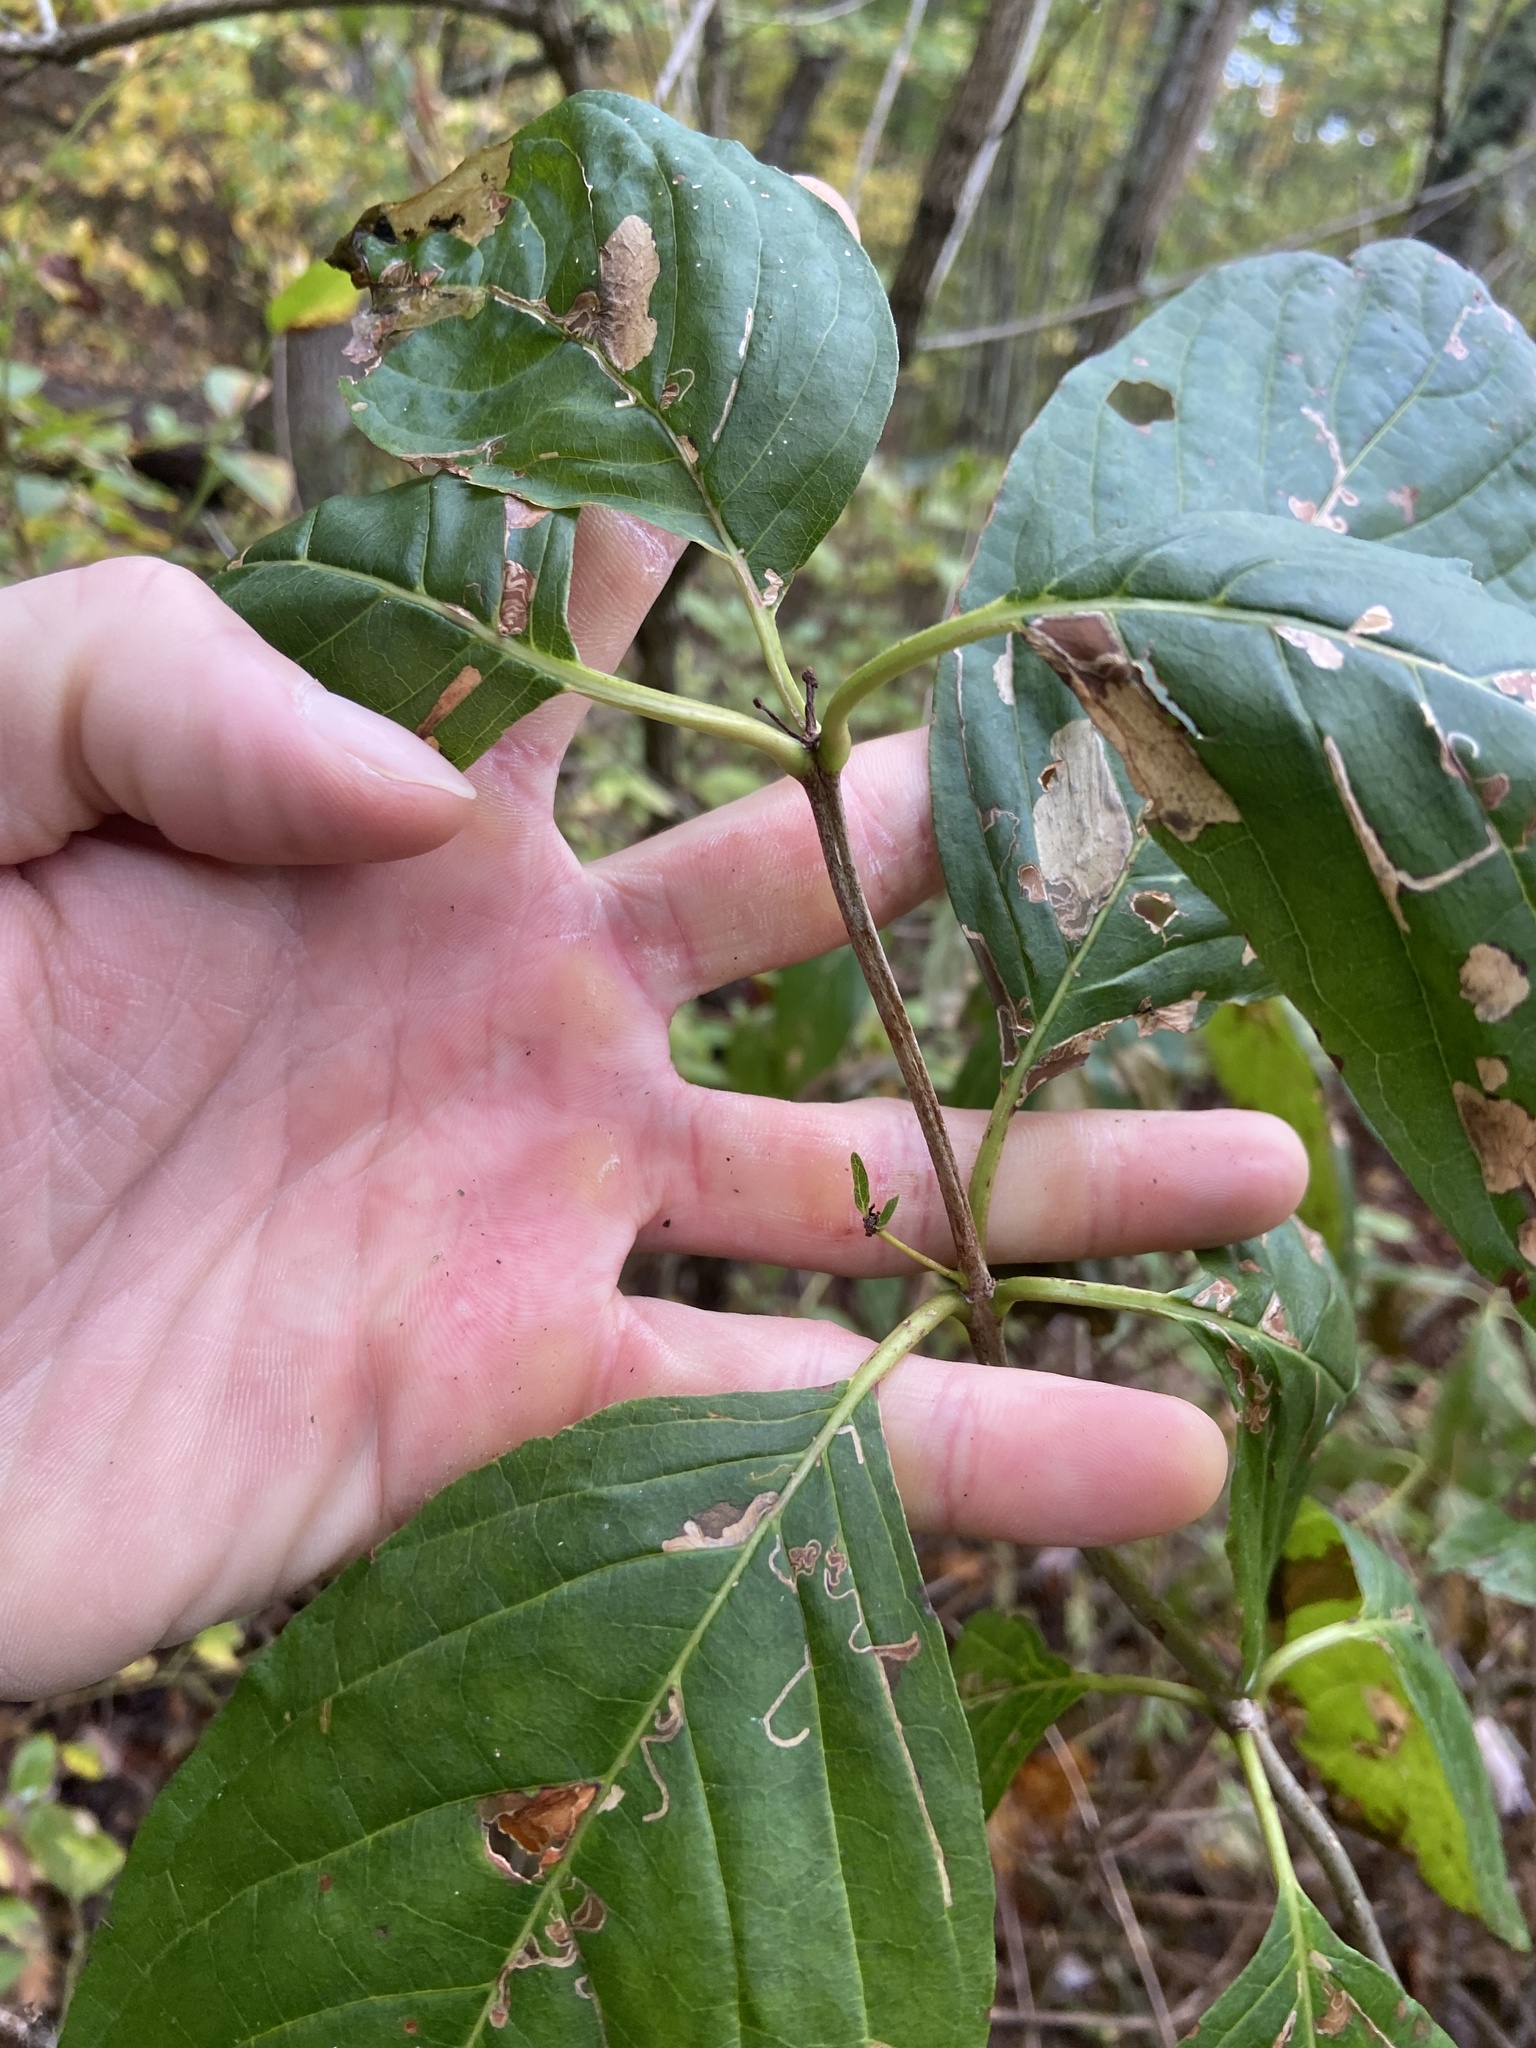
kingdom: Plantae
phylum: Tracheophyta
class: Magnoliopsida
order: Gentianales
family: Rubiaceae
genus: Cephalanthus
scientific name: Cephalanthus occidentalis
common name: Button-willow
